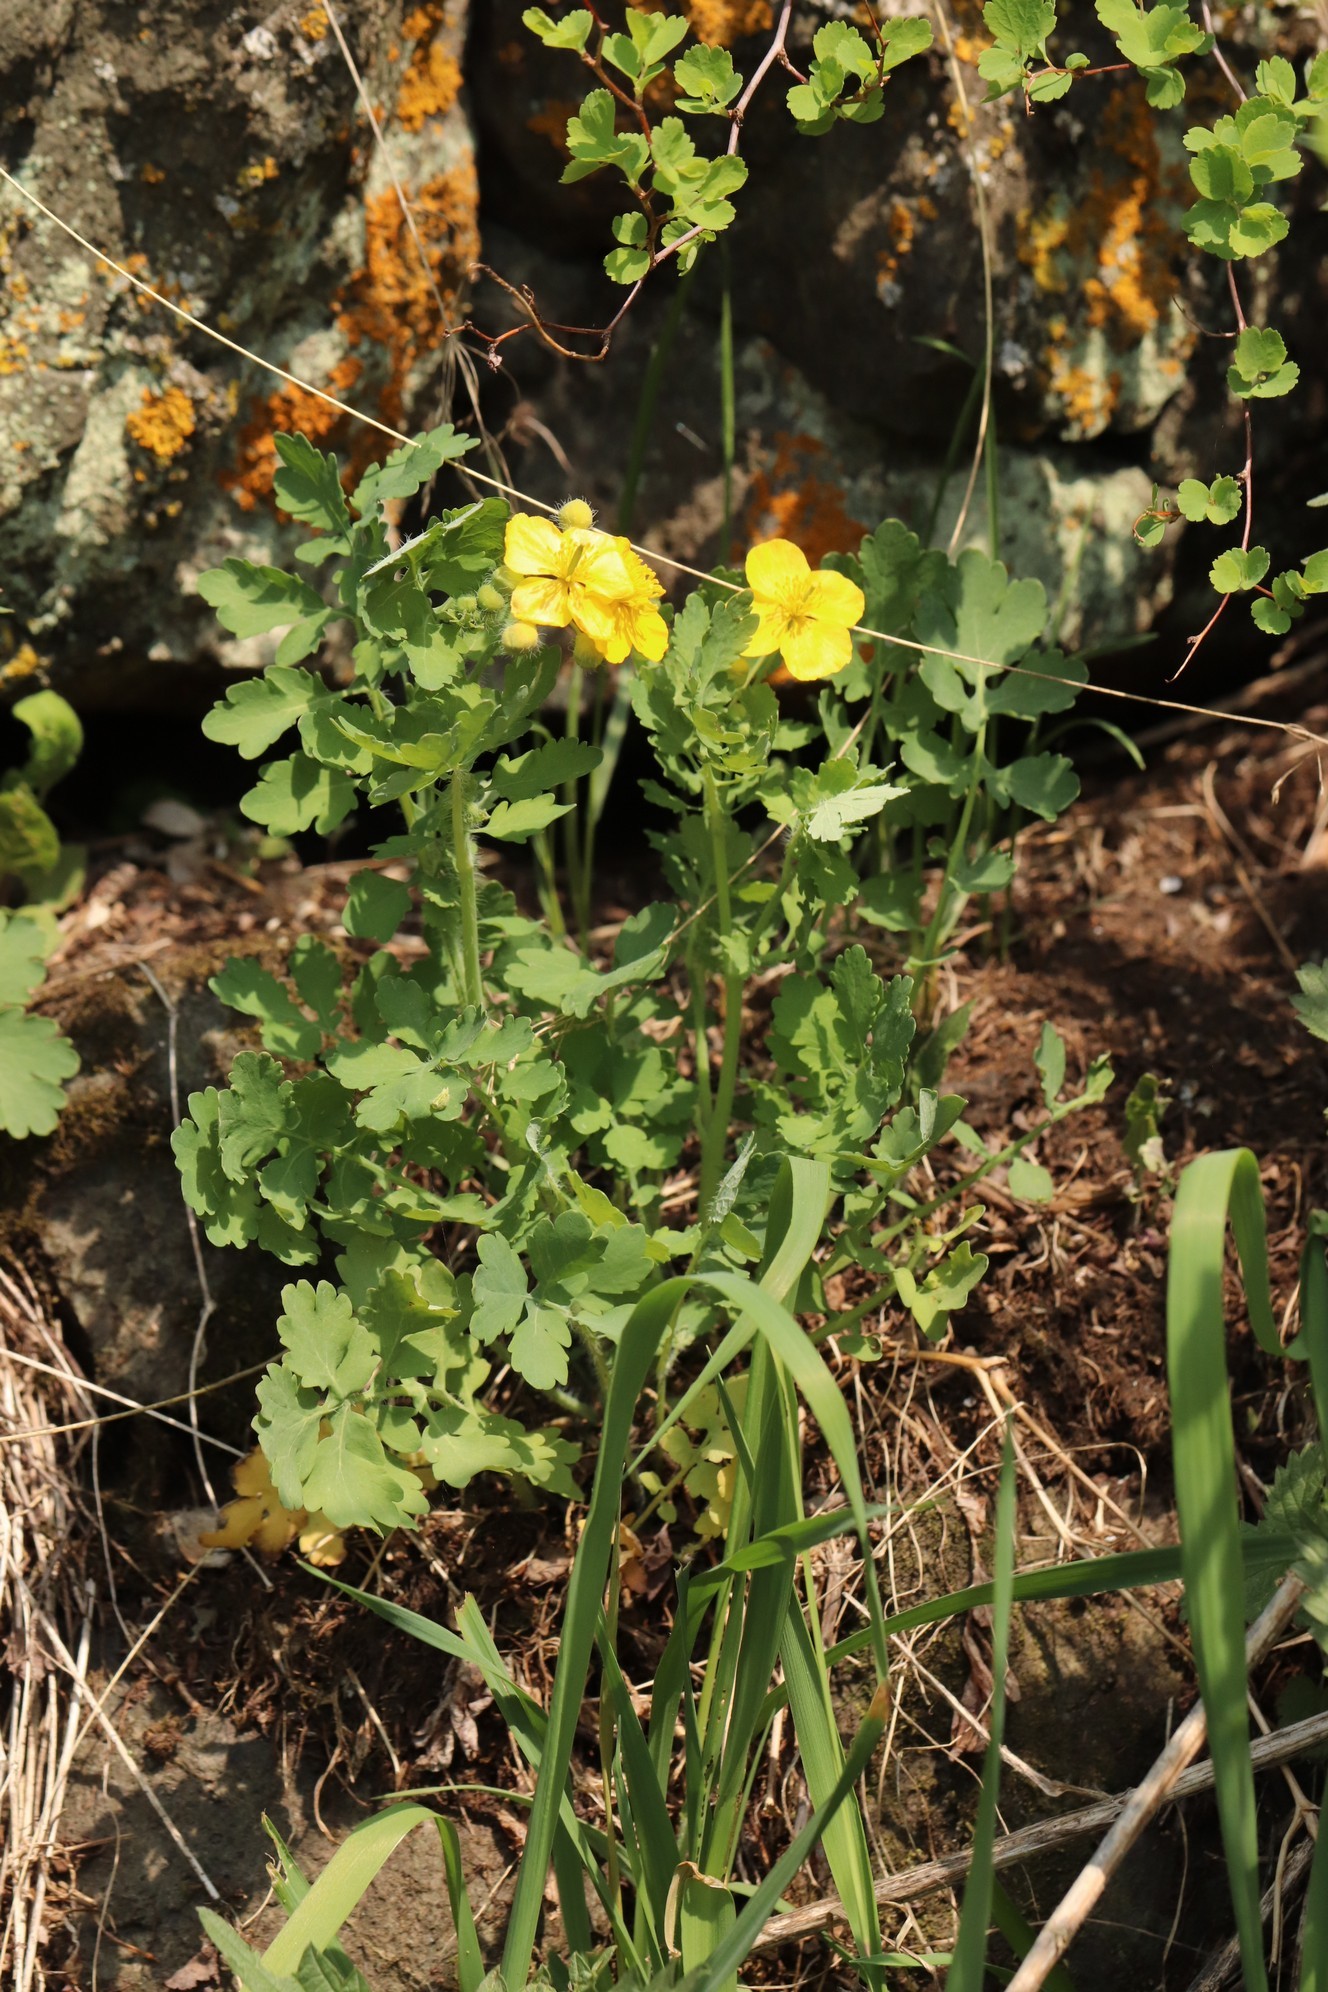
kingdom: Plantae
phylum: Tracheophyta
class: Magnoliopsida
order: Ranunculales
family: Papaveraceae
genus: Chelidonium
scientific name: Chelidonium majus
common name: Greater celandine
